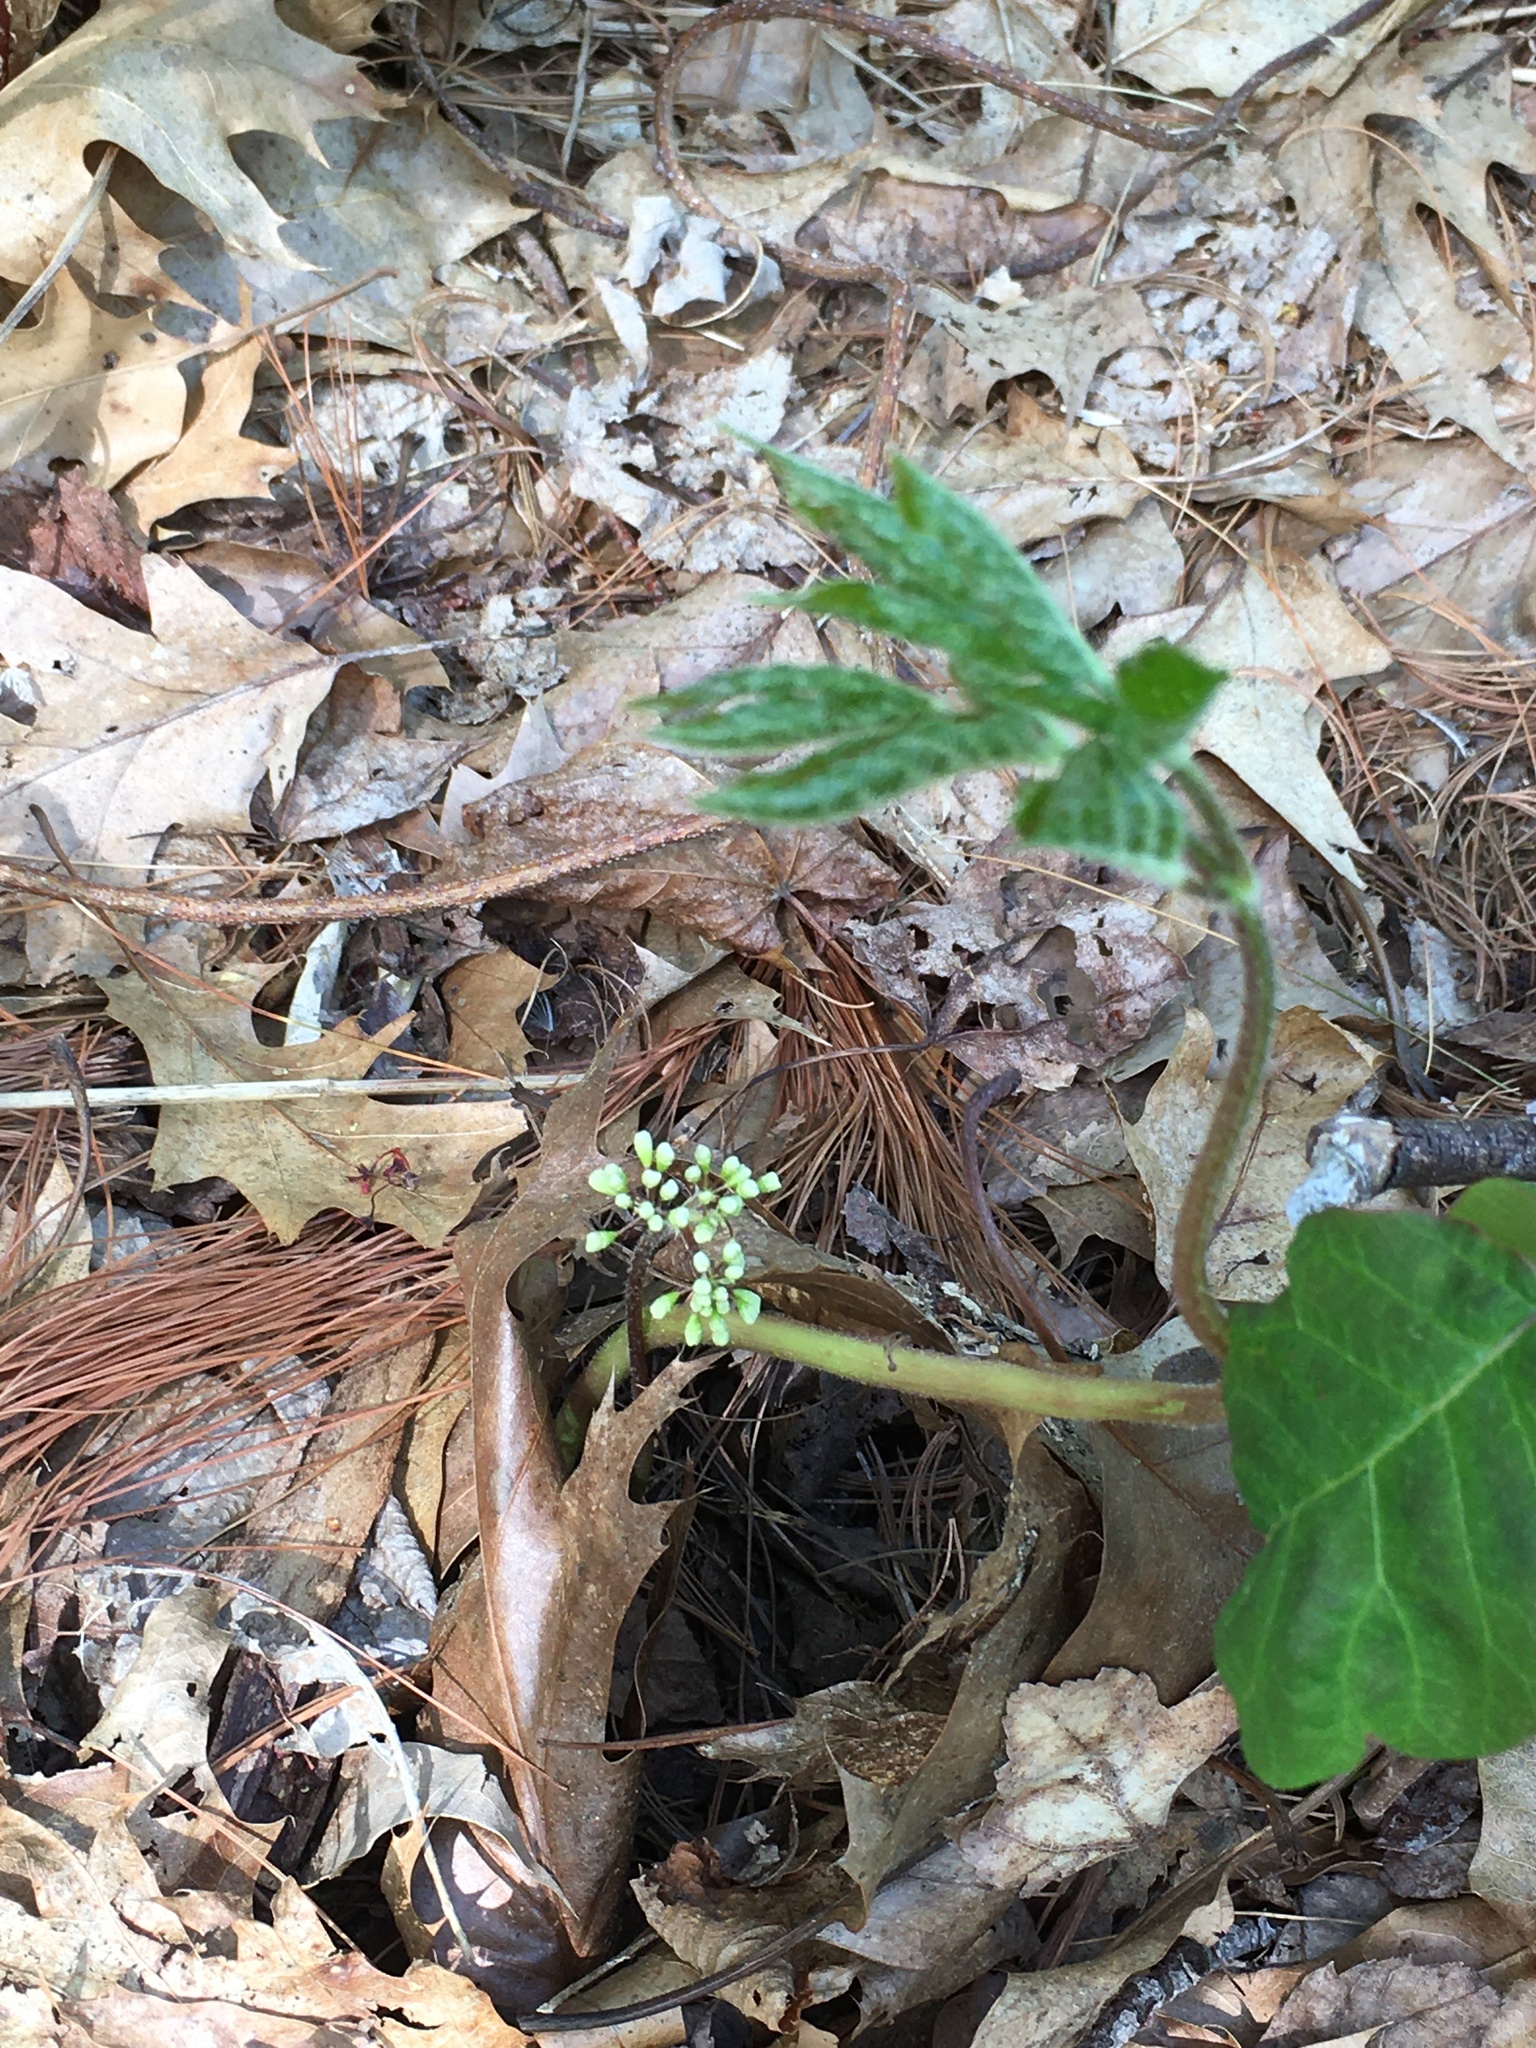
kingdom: Plantae
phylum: Tracheophyta
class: Magnoliopsida
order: Apiales
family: Araliaceae
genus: Aralia
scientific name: Aralia nudicaulis
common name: Wild sarsaparilla
